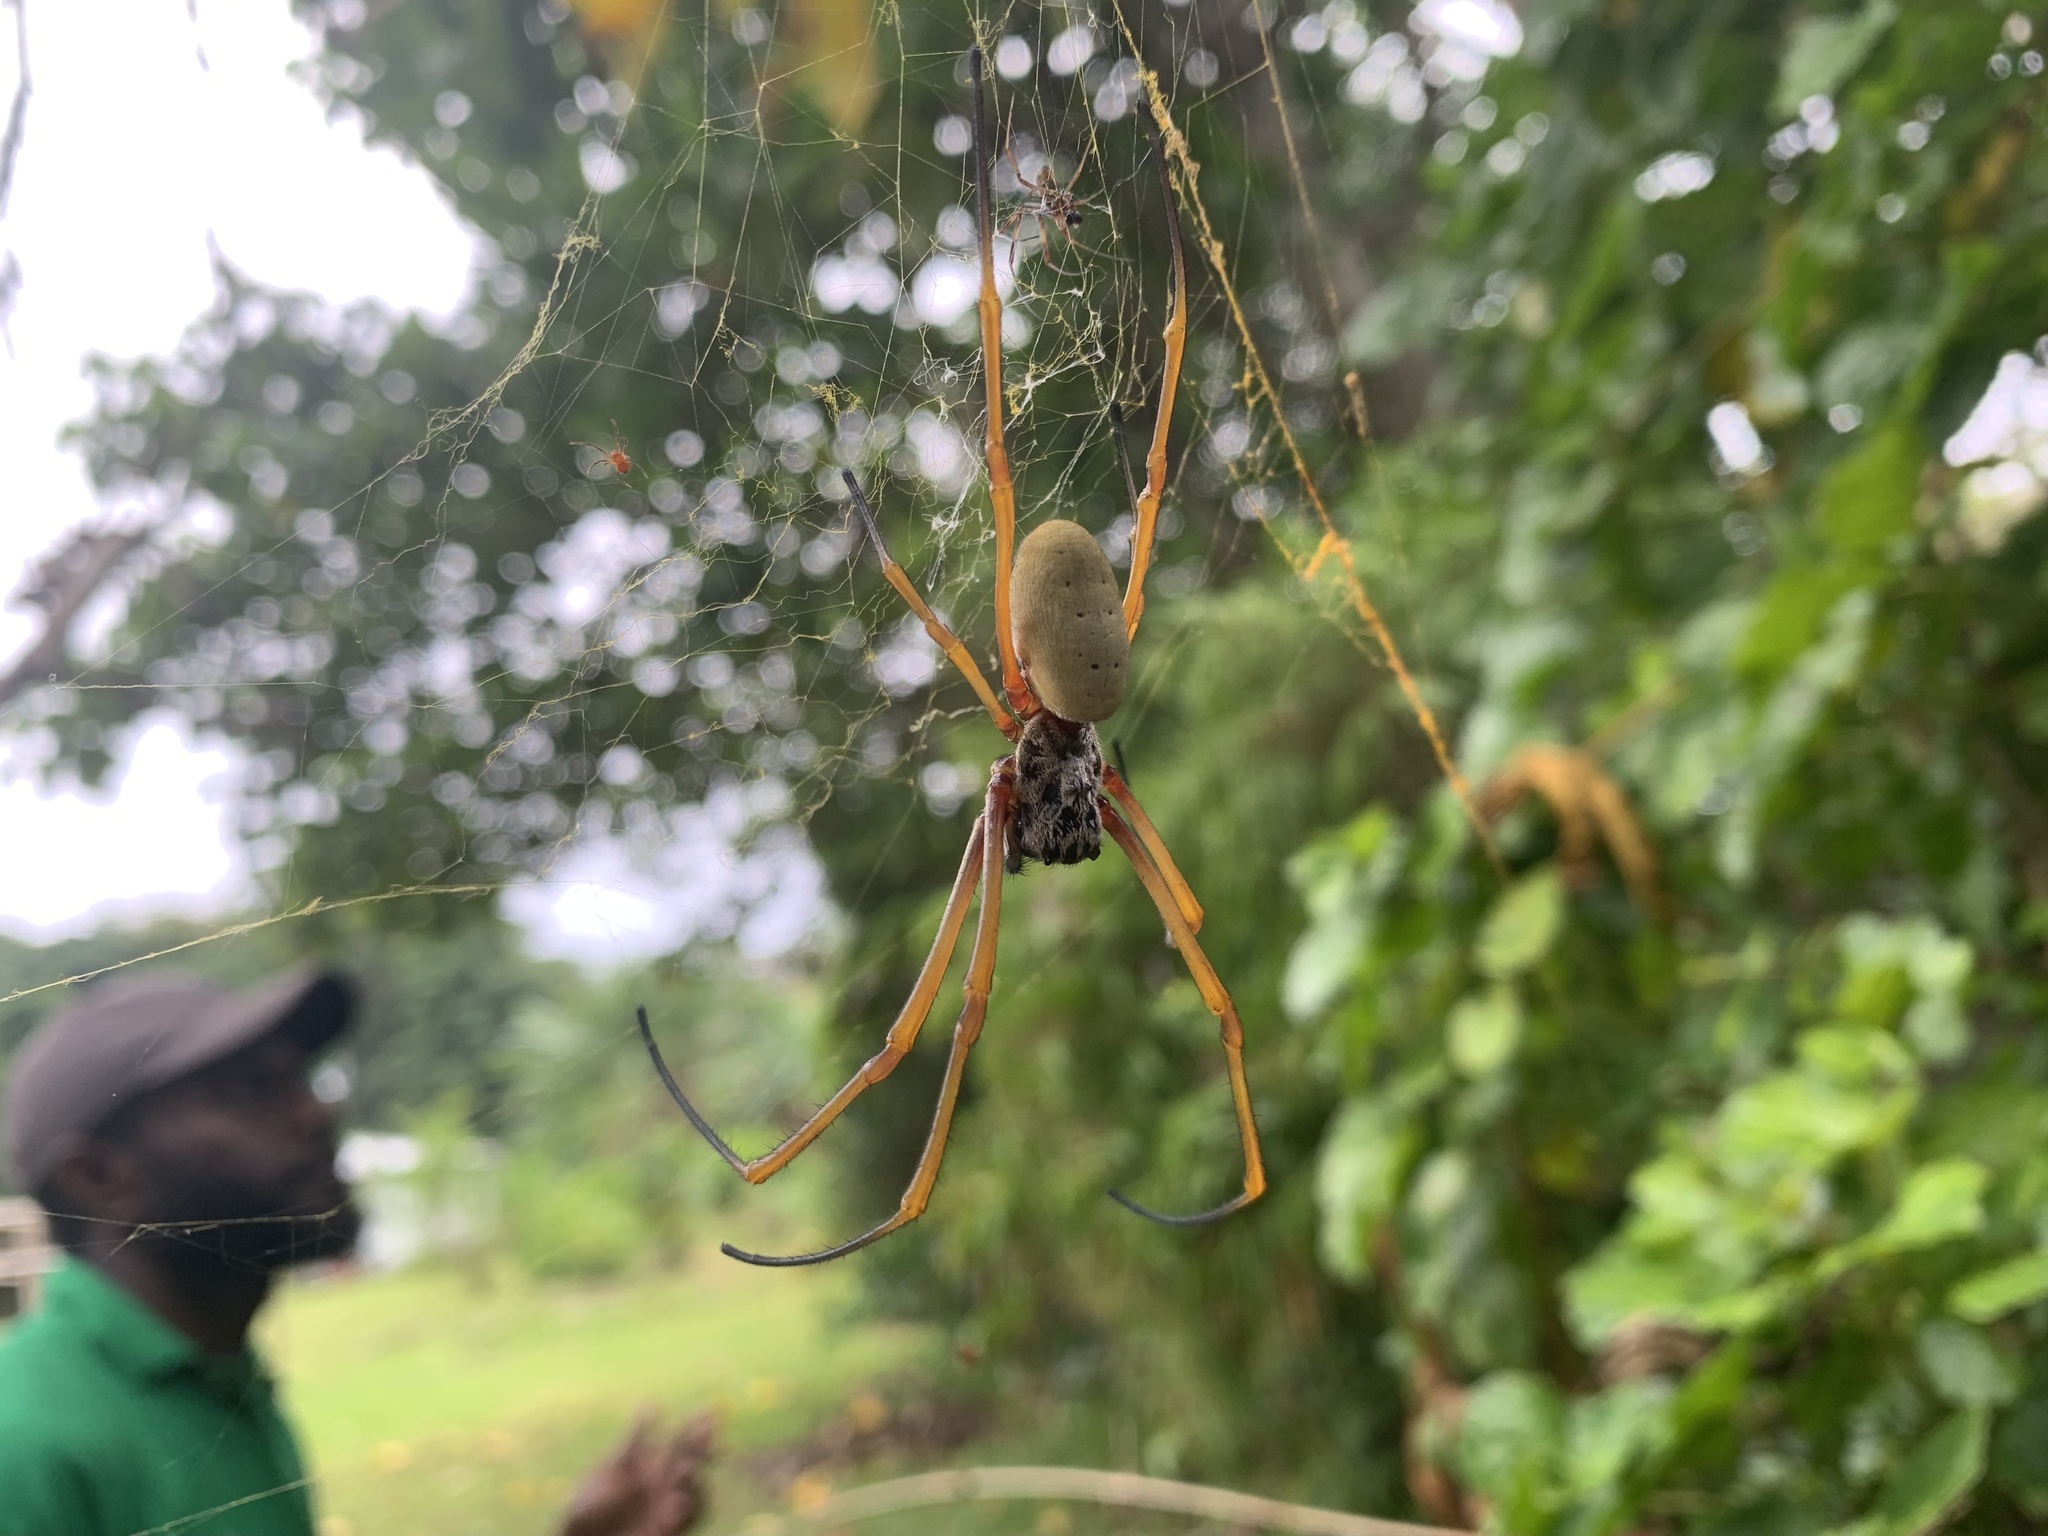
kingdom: Animalia
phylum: Arthropoda
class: Arachnida
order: Araneae
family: Araneidae
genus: Trichonephila
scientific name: Trichonephila plumipes
